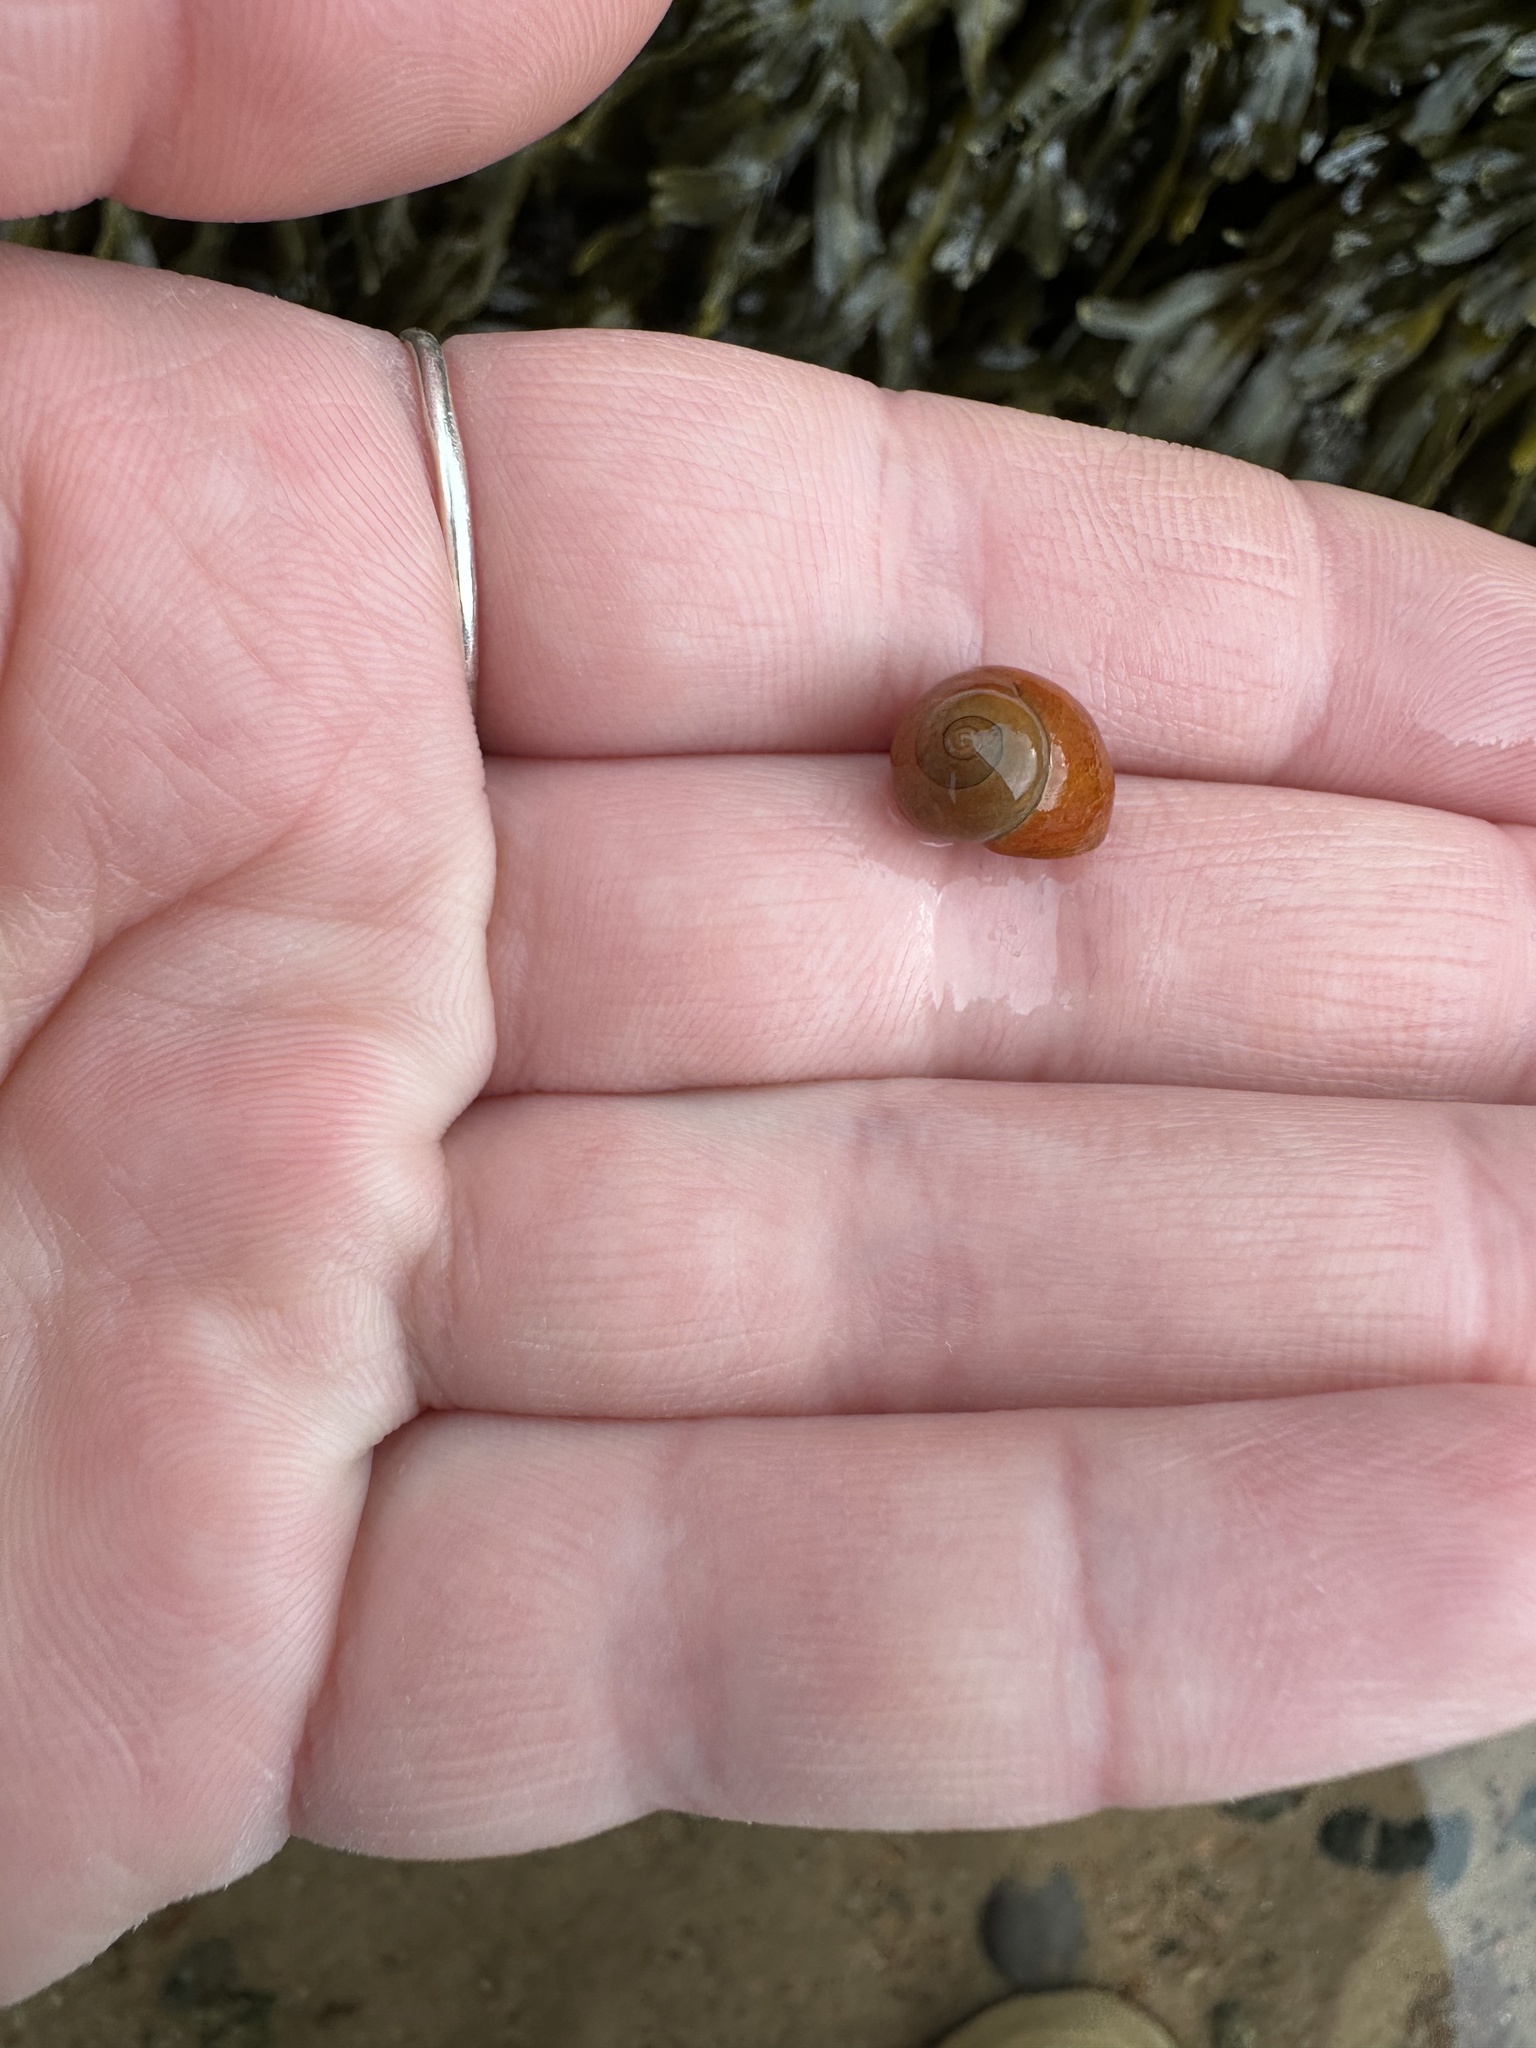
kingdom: Animalia
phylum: Mollusca
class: Gastropoda
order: Littorinimorpha
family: Littorinidae
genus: Littorina
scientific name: Littorina obtusata
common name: Flat periwinkle
